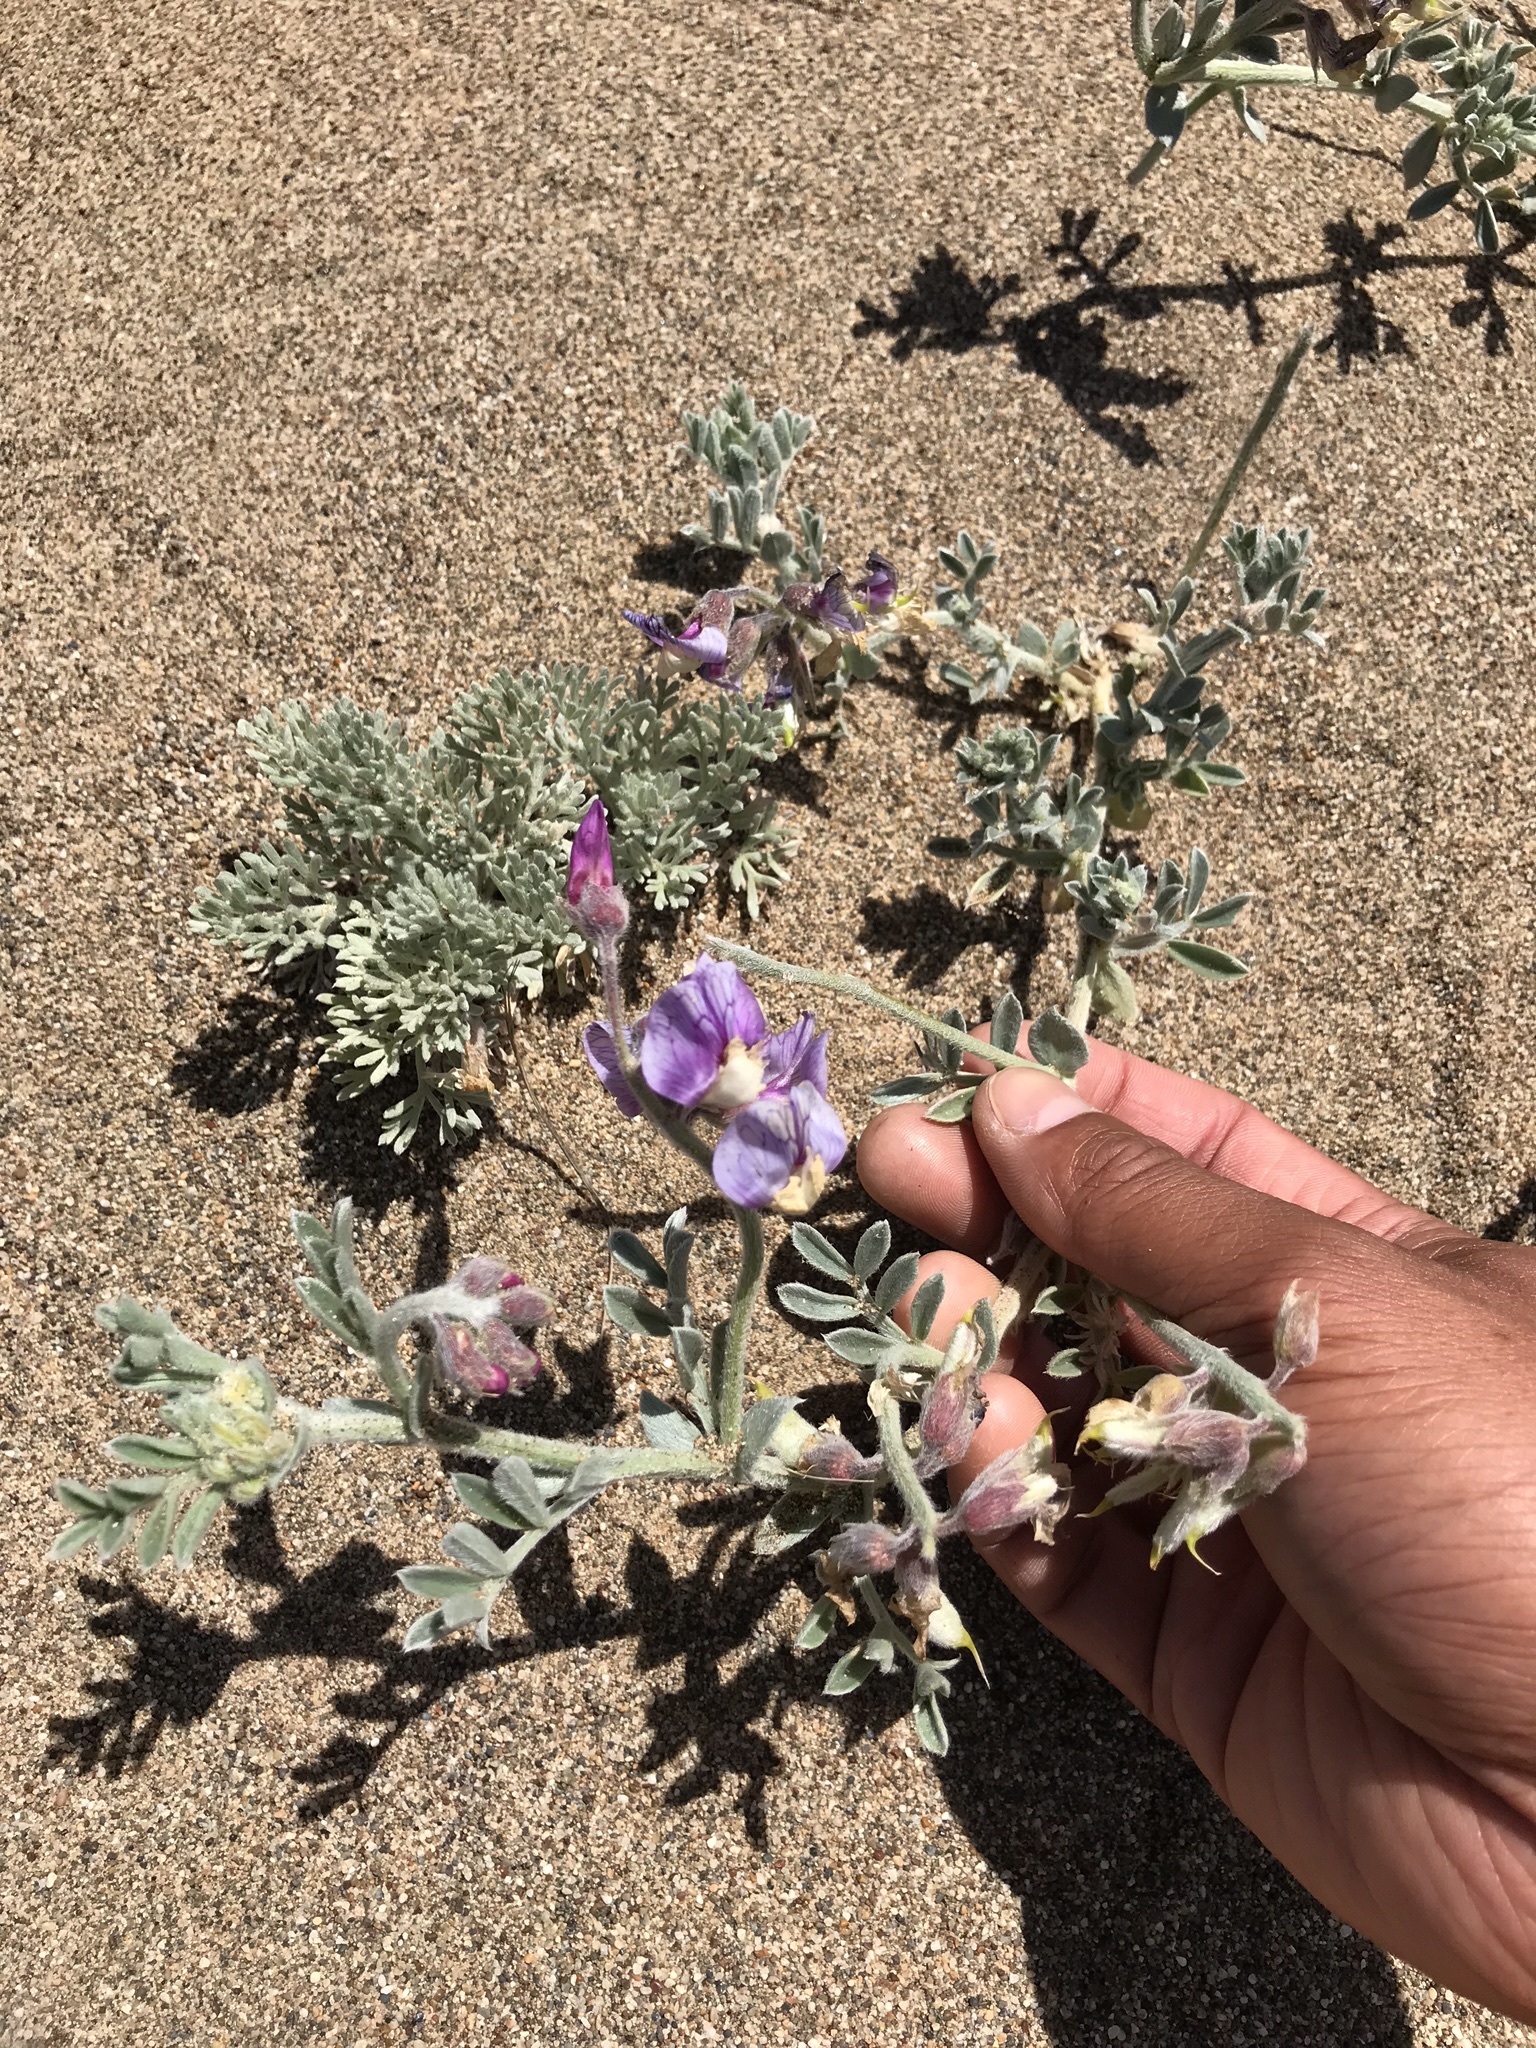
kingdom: Plantae
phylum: Tracheophyta
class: Magnoliopsida
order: Fabales
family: Fabaceae
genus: Lathyrus
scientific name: Lathyrus littoralis
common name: Dune sweet pea
